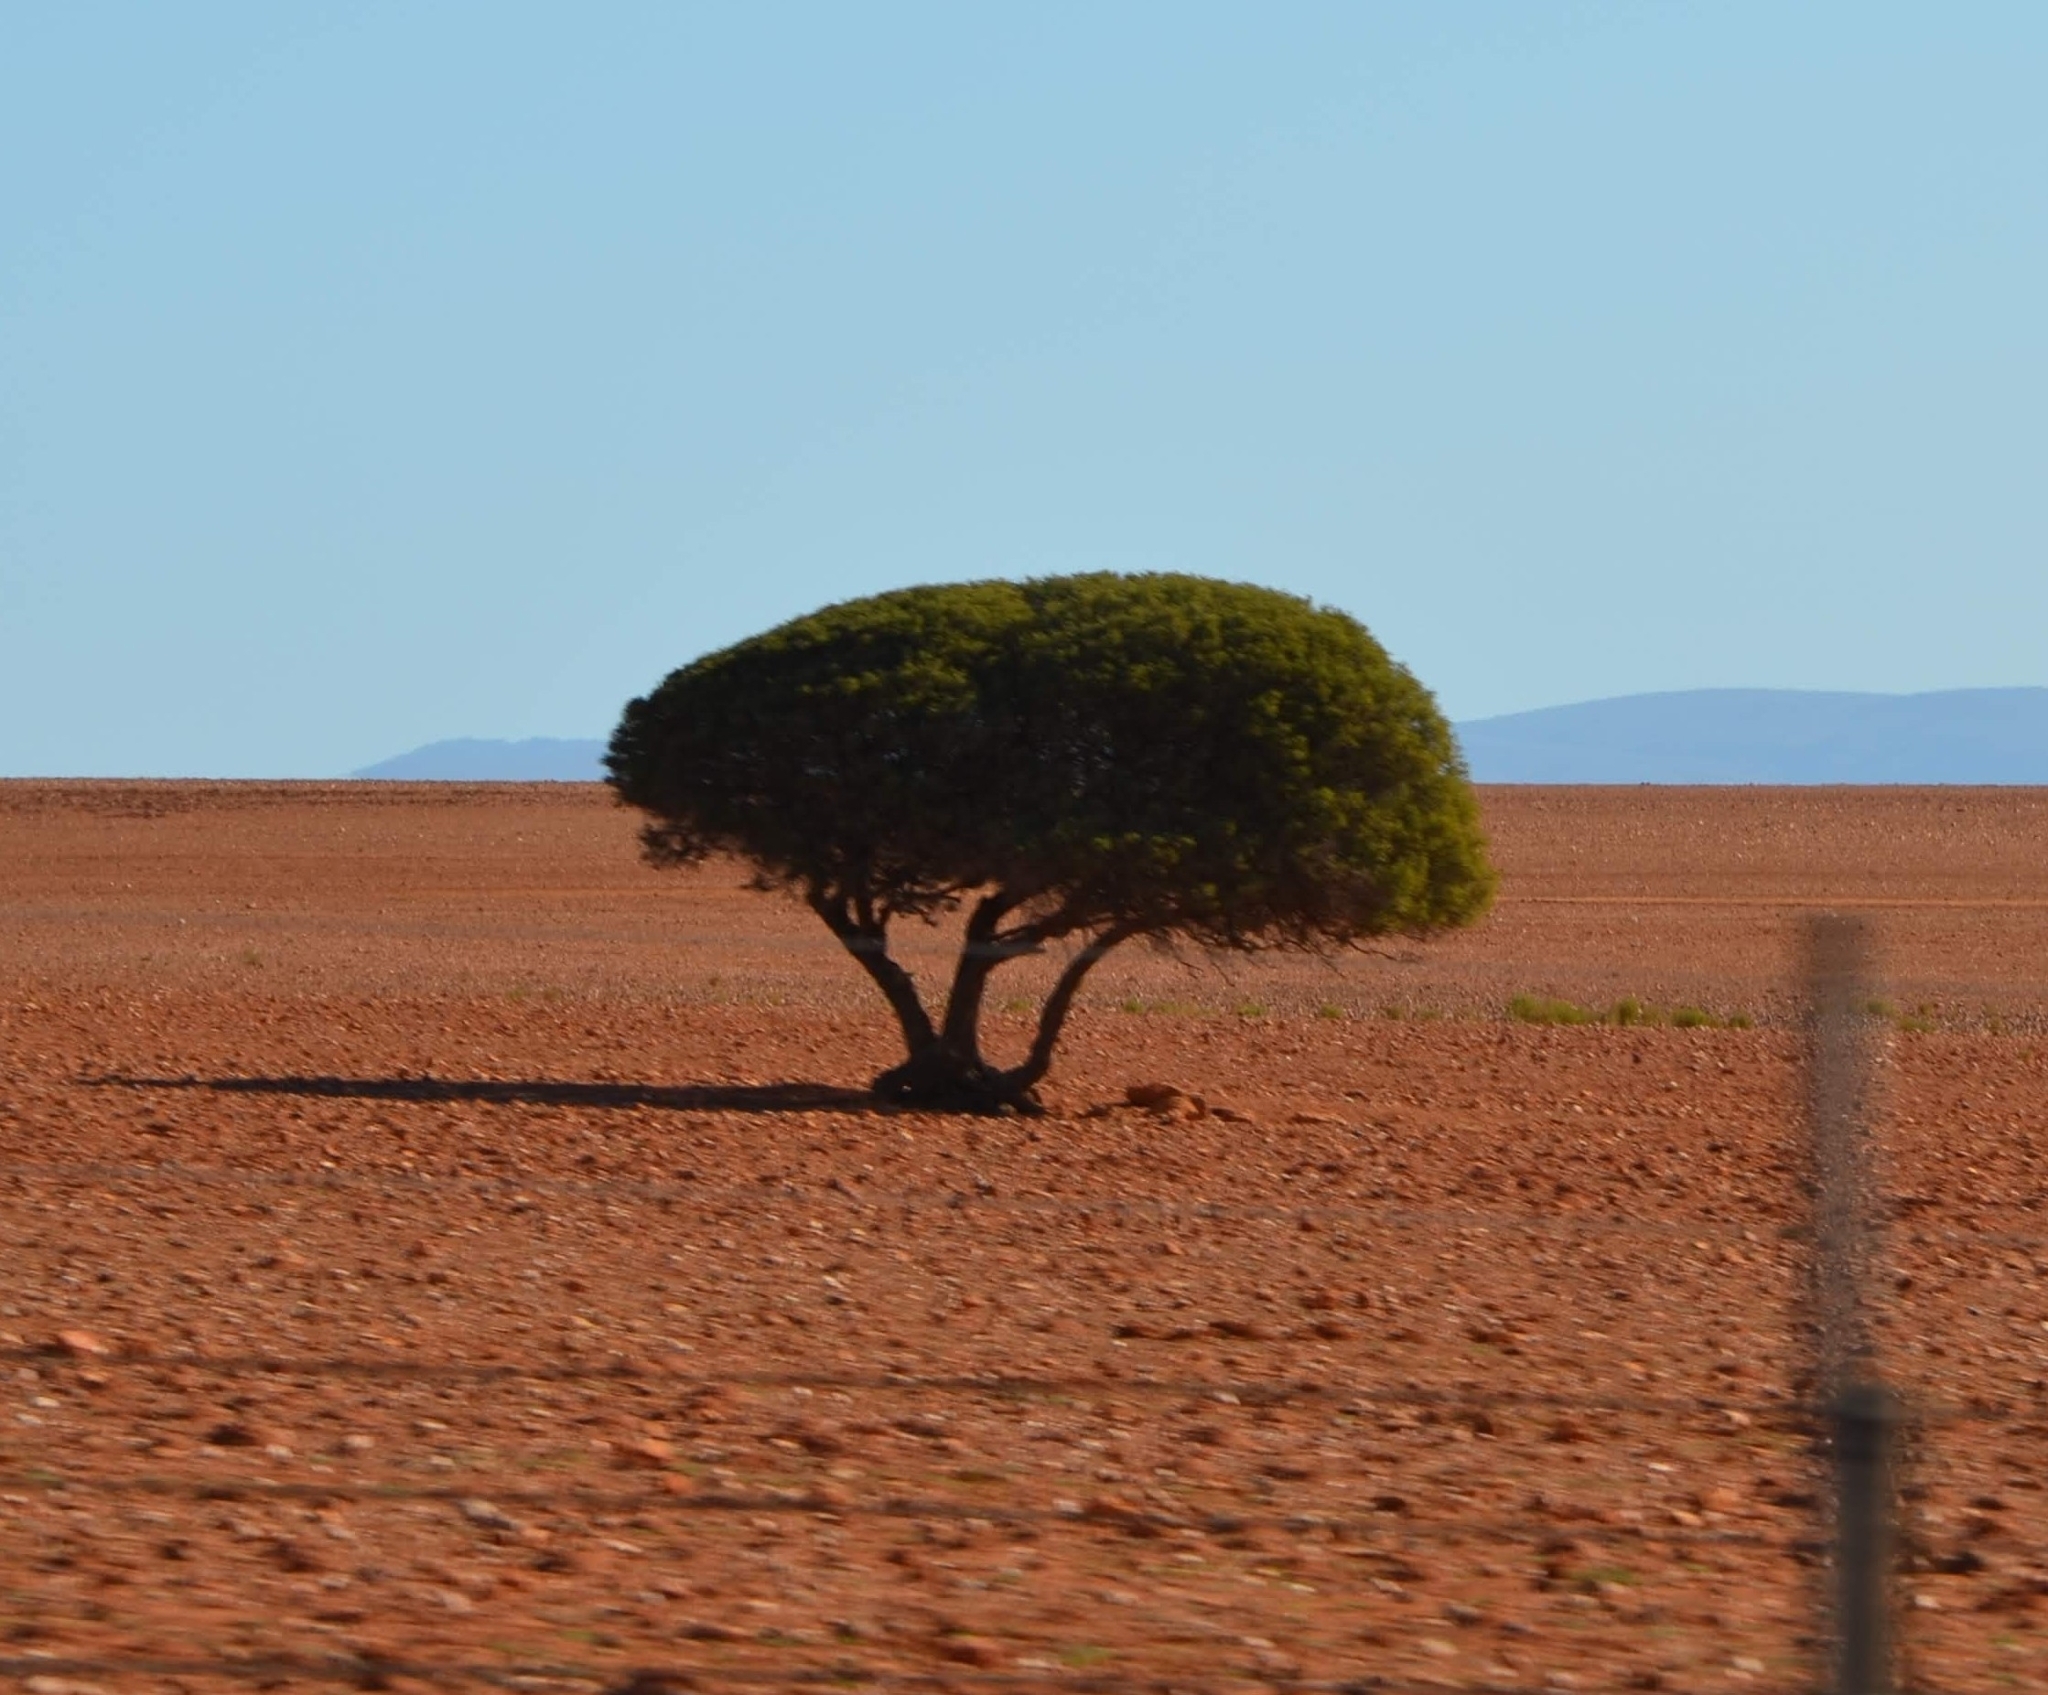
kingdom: Plantae
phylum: Tracheophyta
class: Magnoliopsida
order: Sapindales
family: Sapindaceae
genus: Pappea
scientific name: Pappea capensis
